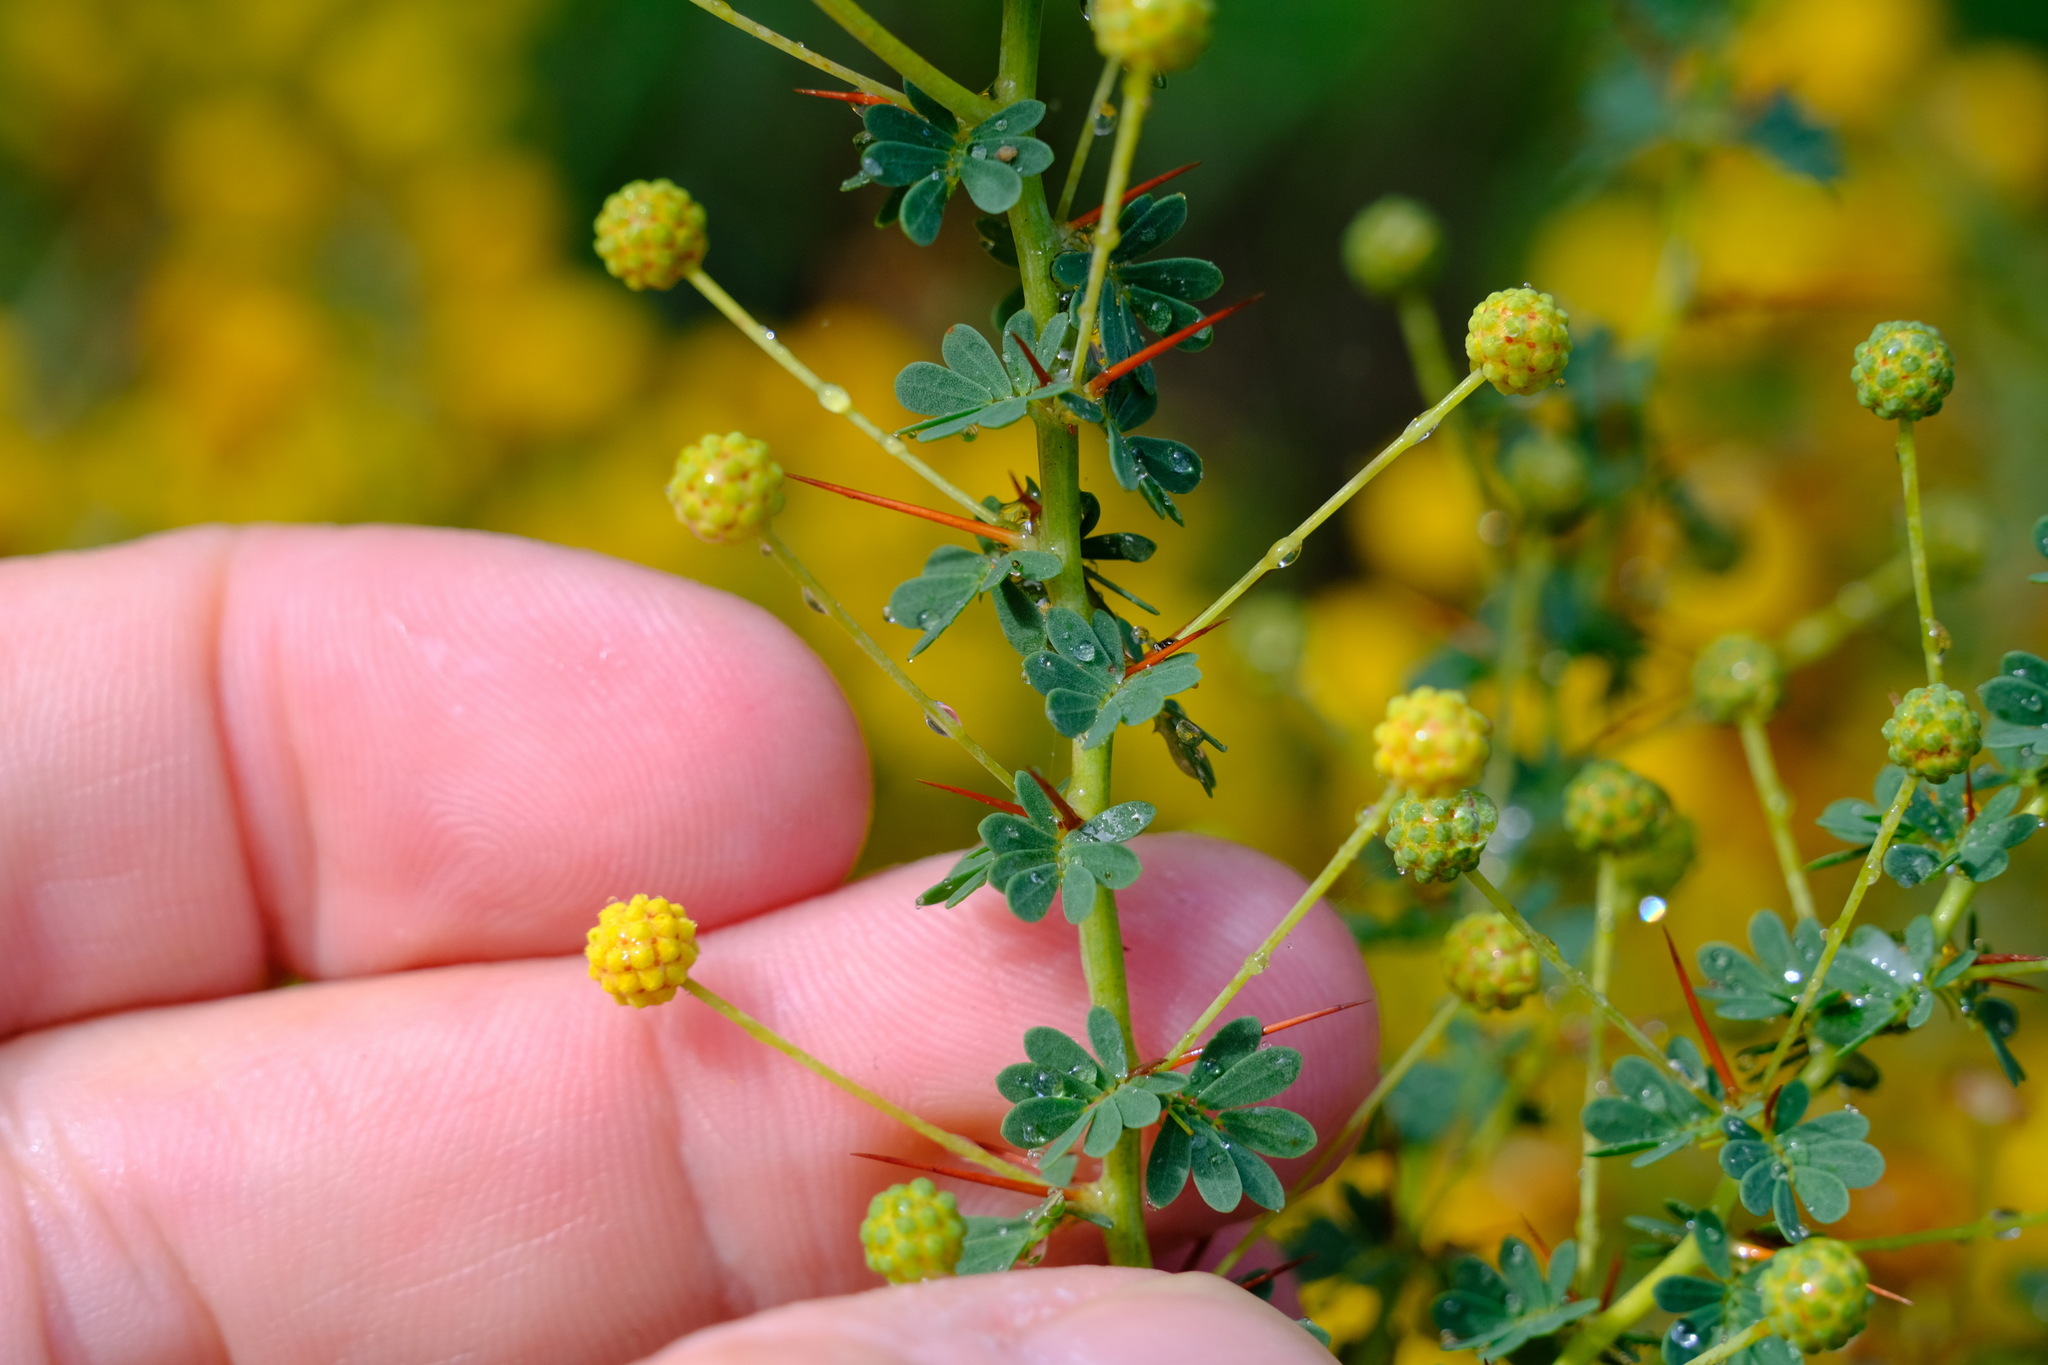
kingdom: Plantae
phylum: Tracheophyta
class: Magnoliopsida
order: Fabales
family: Fabaceae
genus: Acacia
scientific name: Acacia pulchella
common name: Prickly moses
